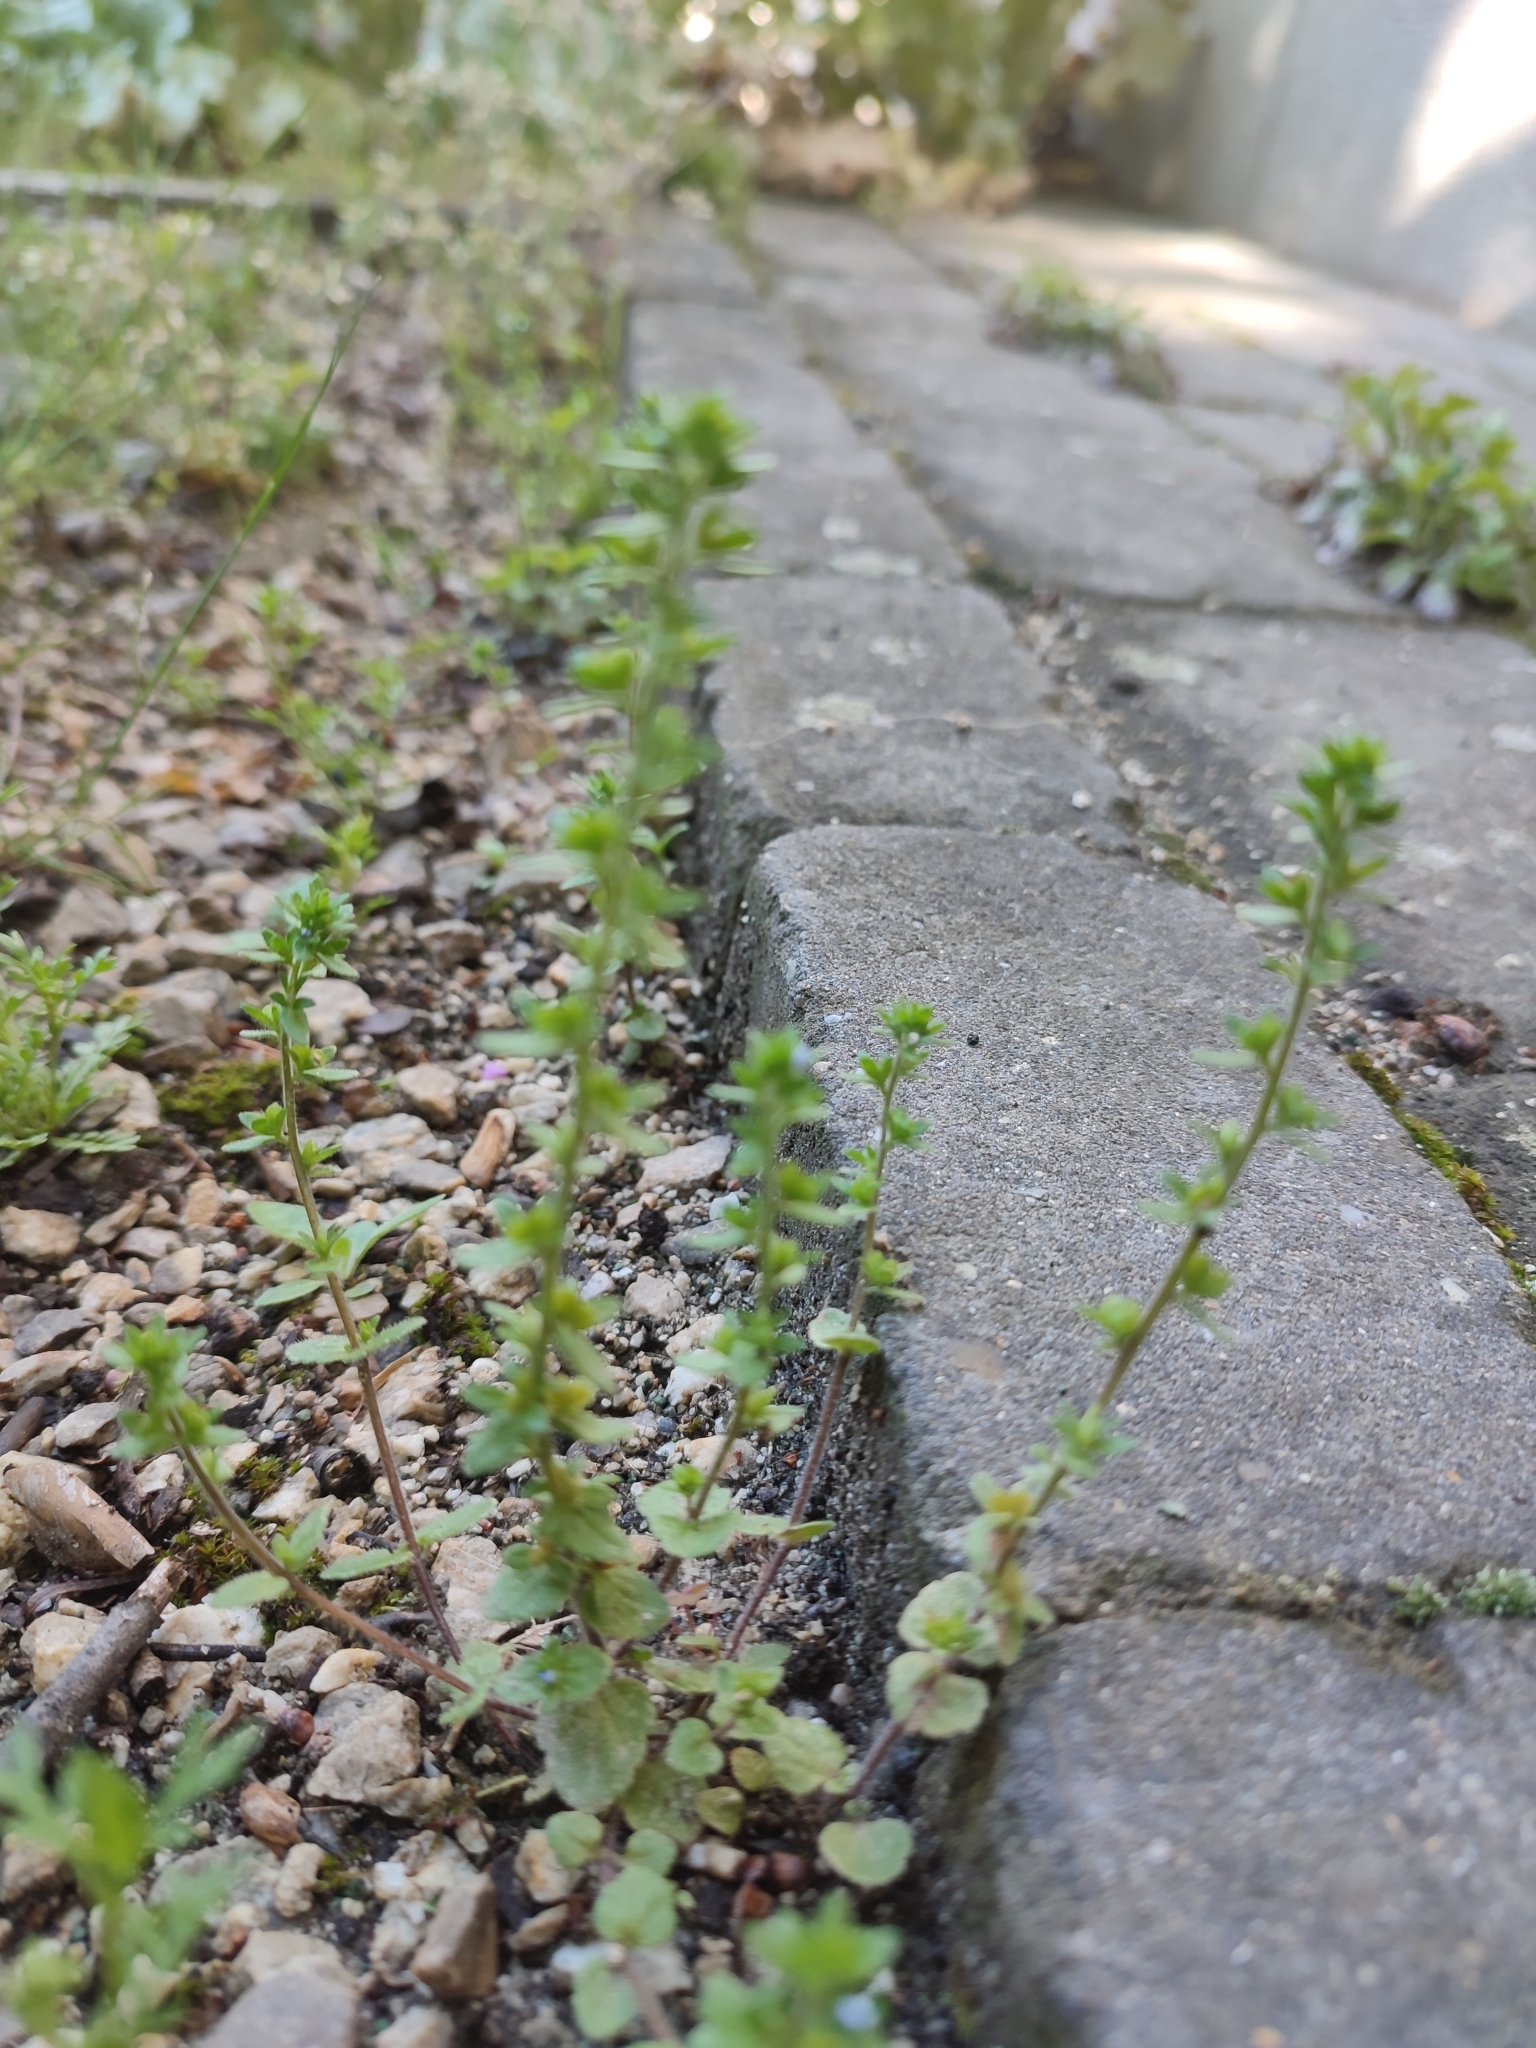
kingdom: Plantae
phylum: Tracheophyta
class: Magnoliopsida
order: Lamiales
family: Plantaginaceae
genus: Veronica
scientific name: Veronica arvensis
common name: Corn speedwell
